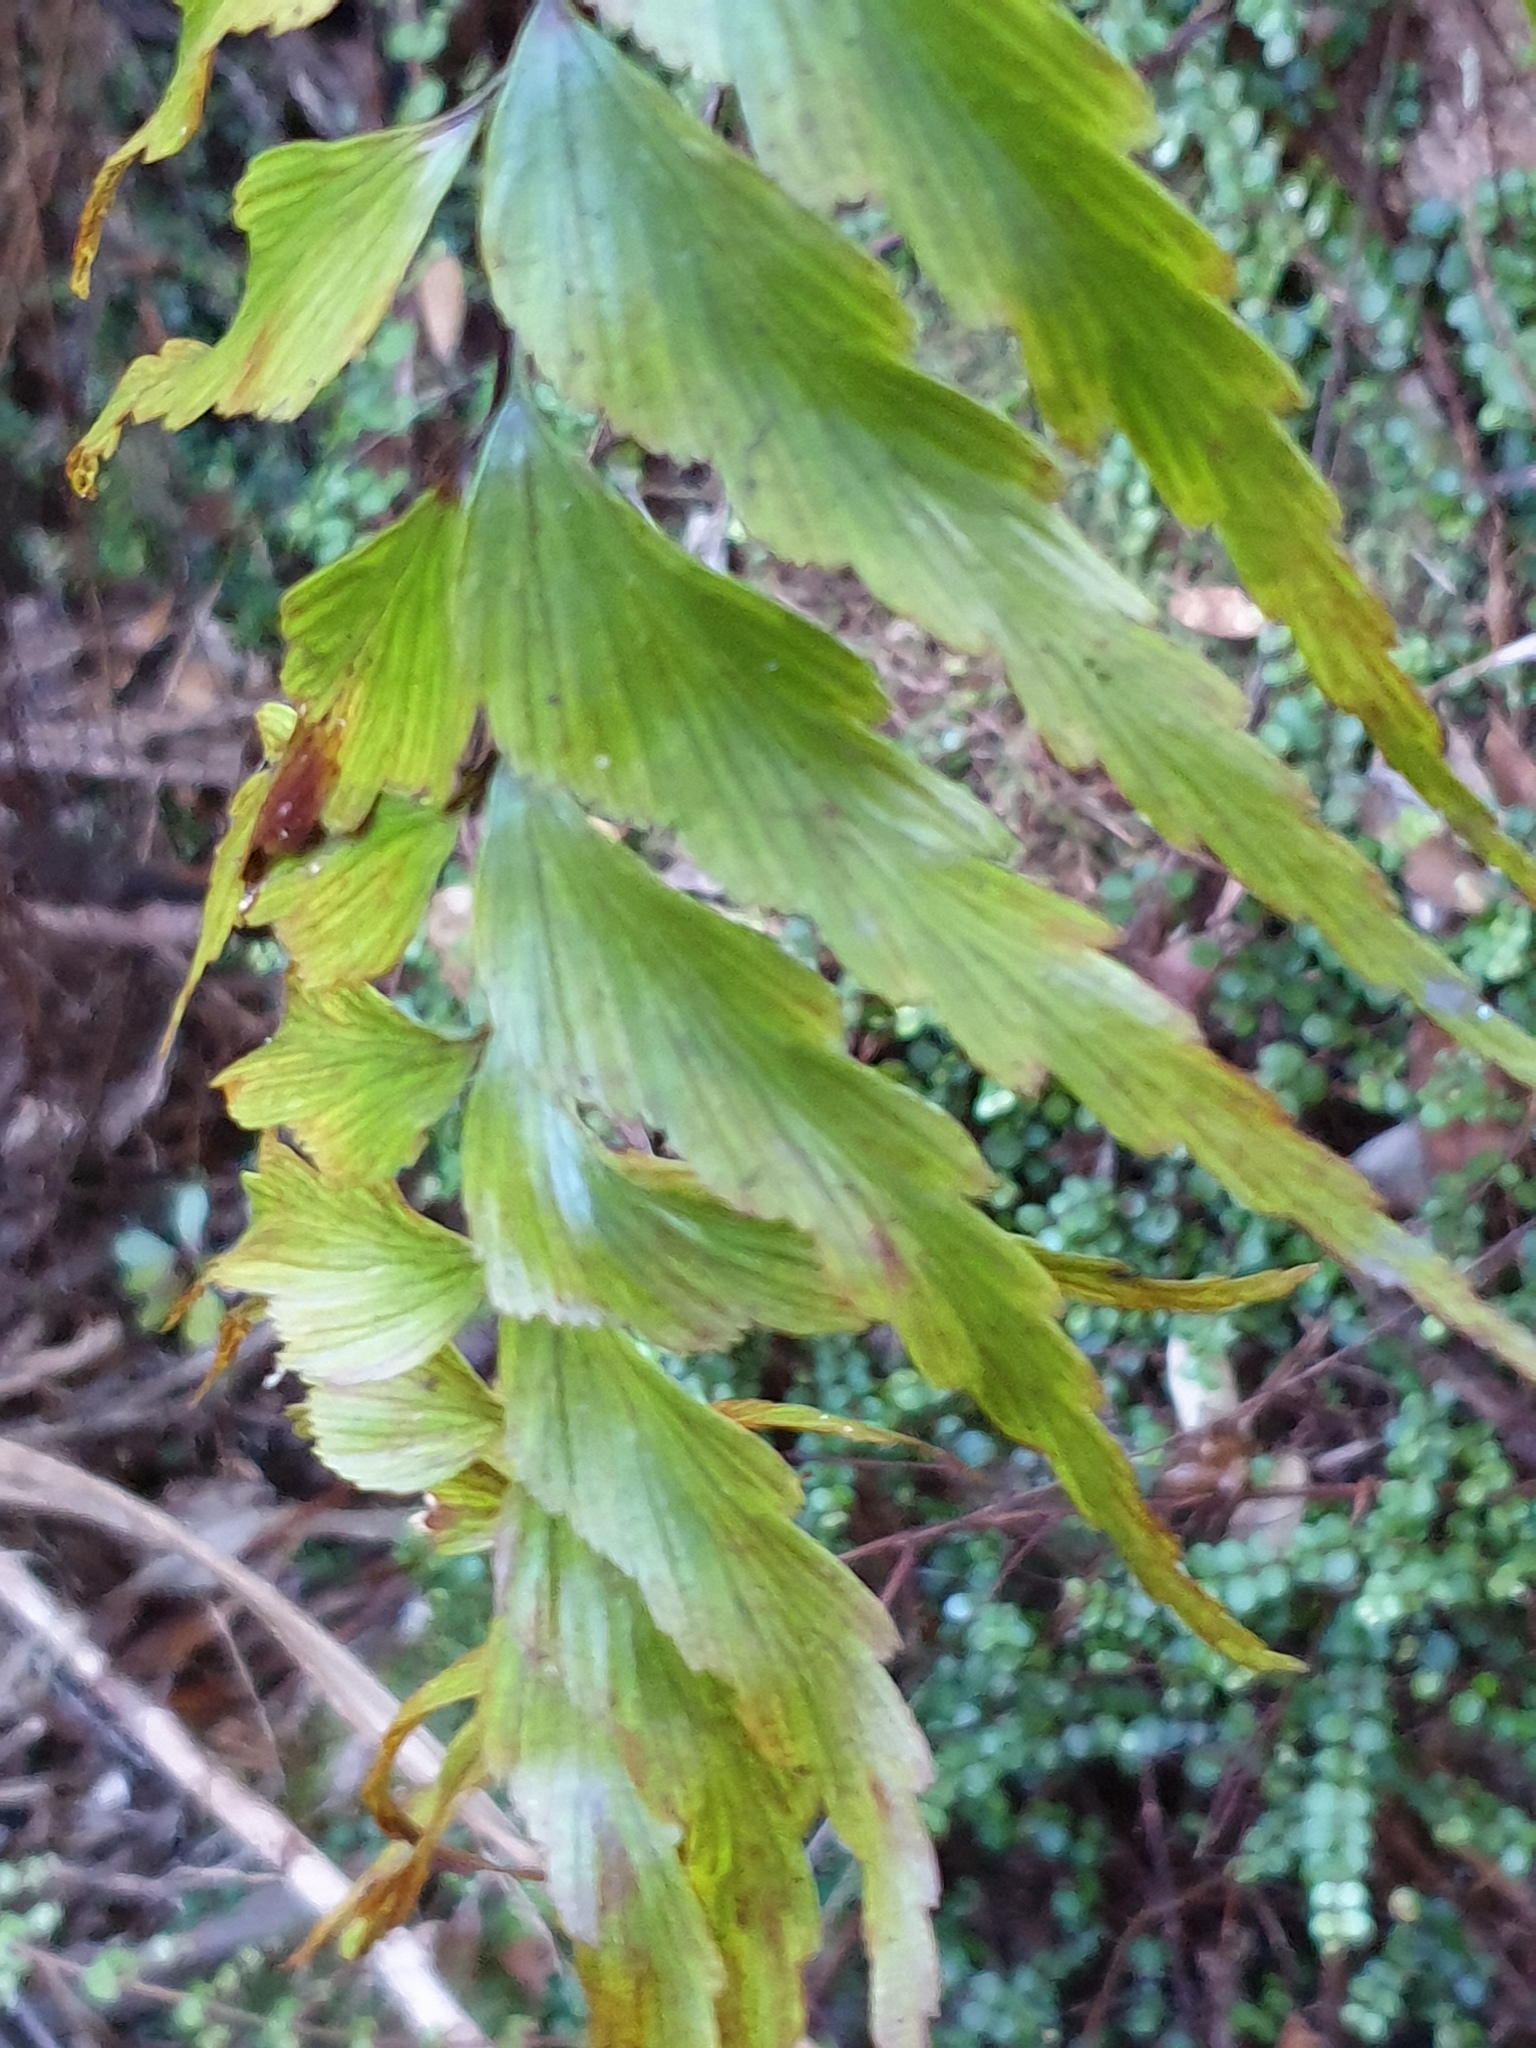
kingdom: Plantae
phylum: Tracheophyta
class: Polypodiopsida
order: Polypodiales
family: Aspleniaceae
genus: Asplenium
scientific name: Asplenium polyodon
